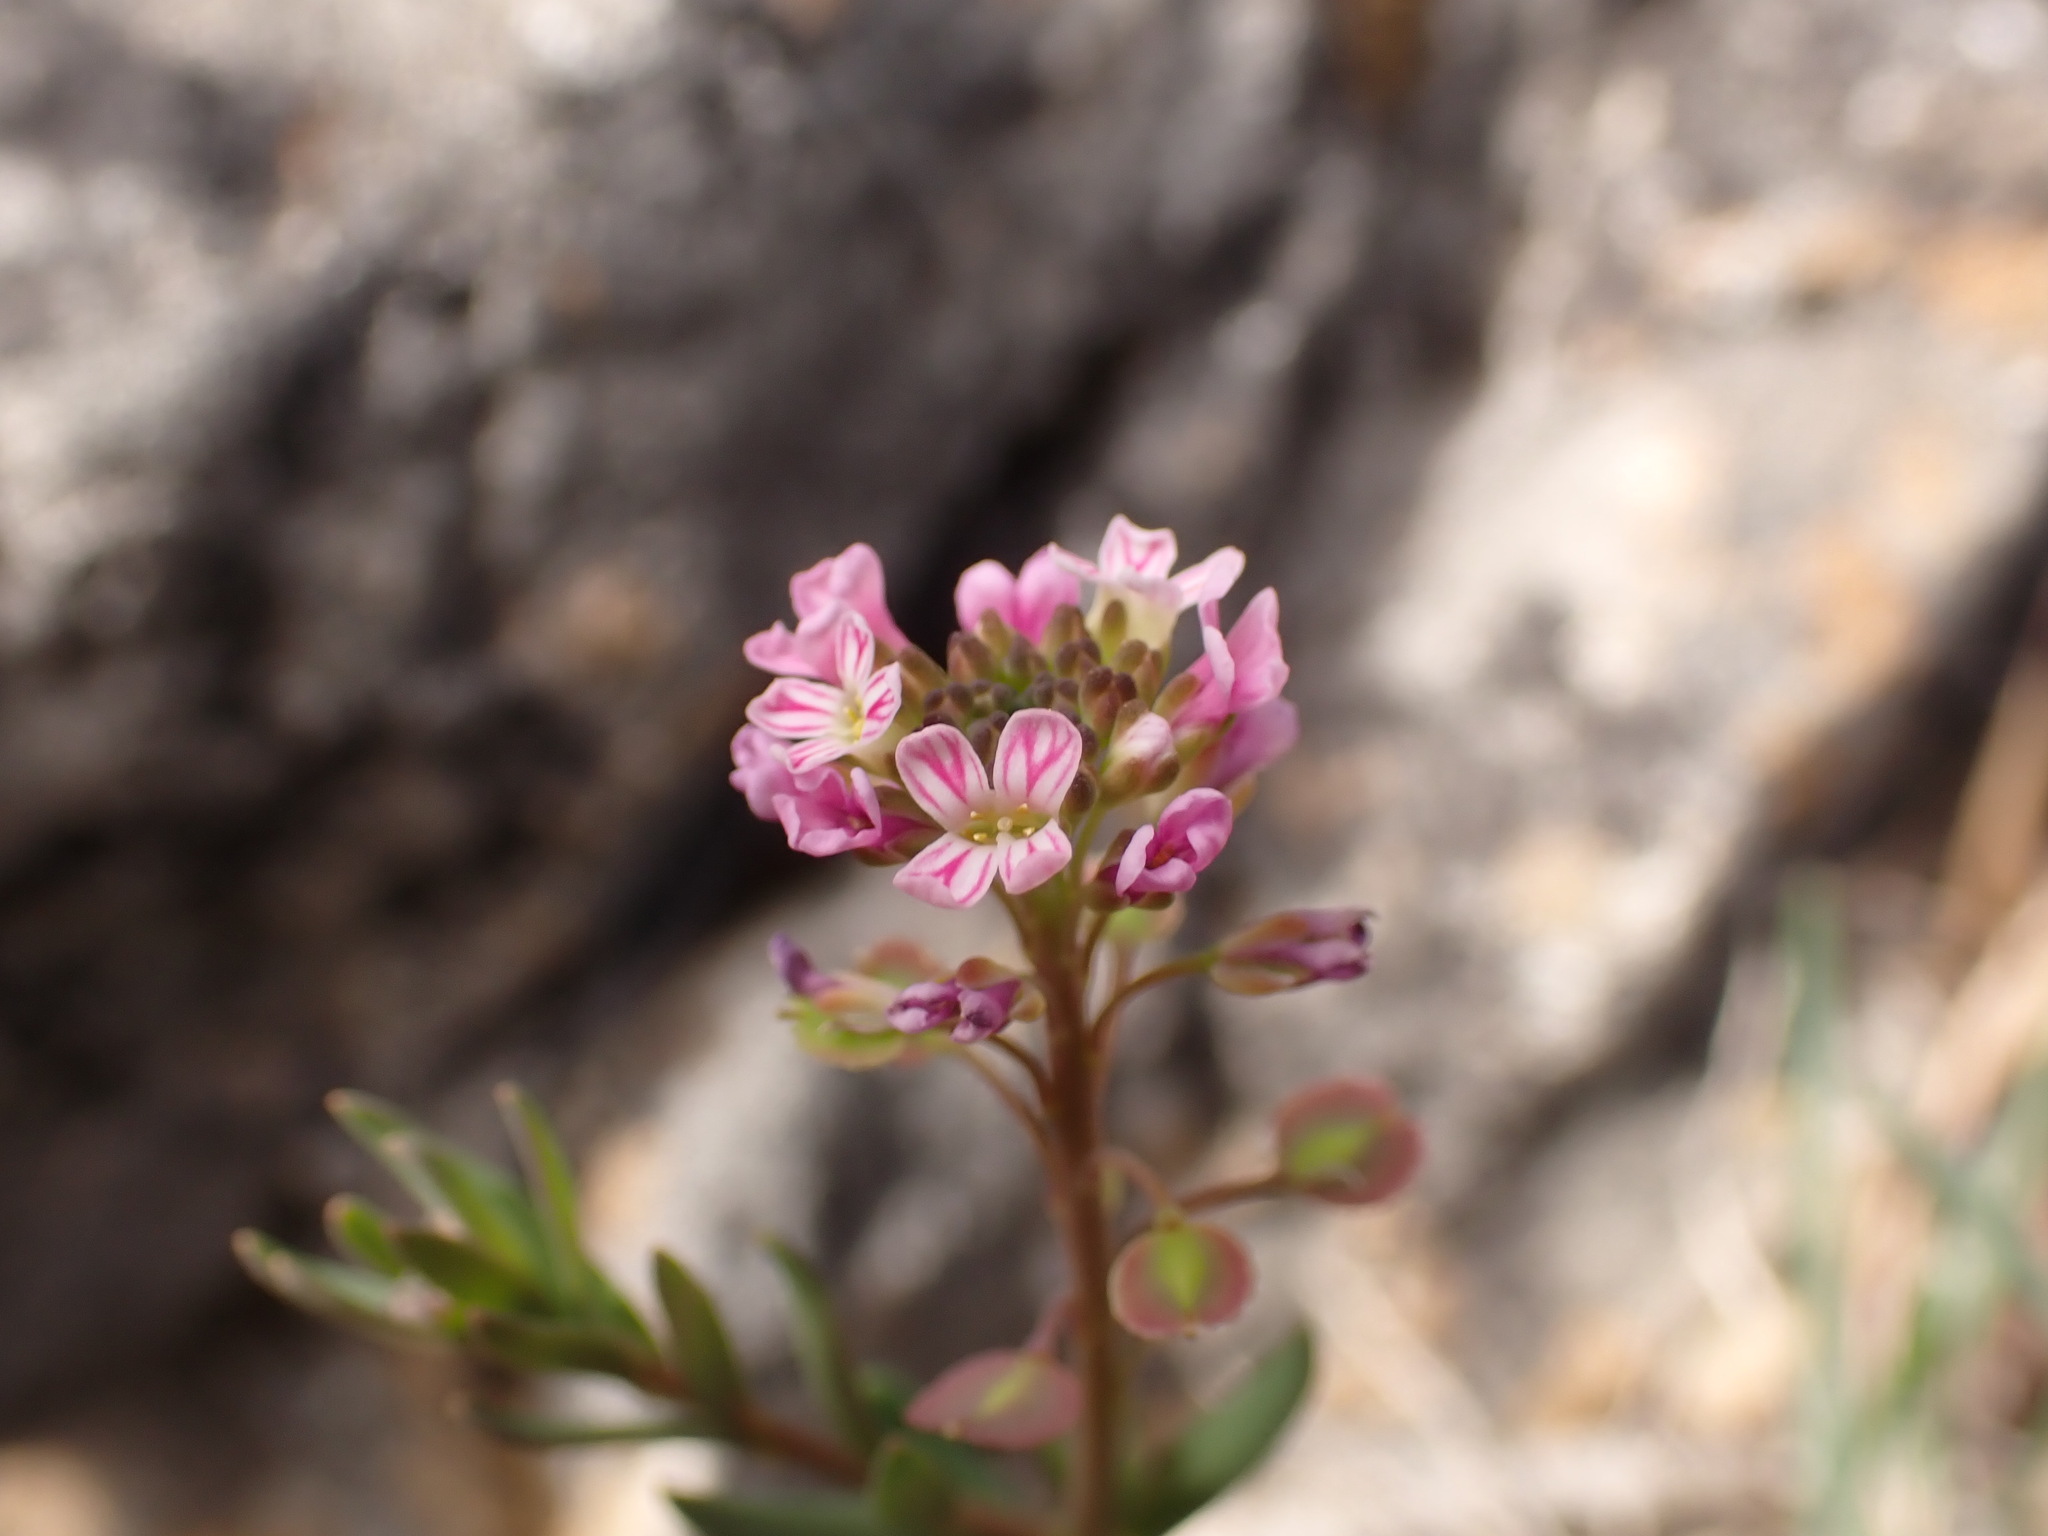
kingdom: Plantae
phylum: Tracheophyta
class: Magnoliopsida
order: Brassicales
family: Brassicaceae
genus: Aethionema
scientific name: Aethionema saxatile
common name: Burnt candytuft
